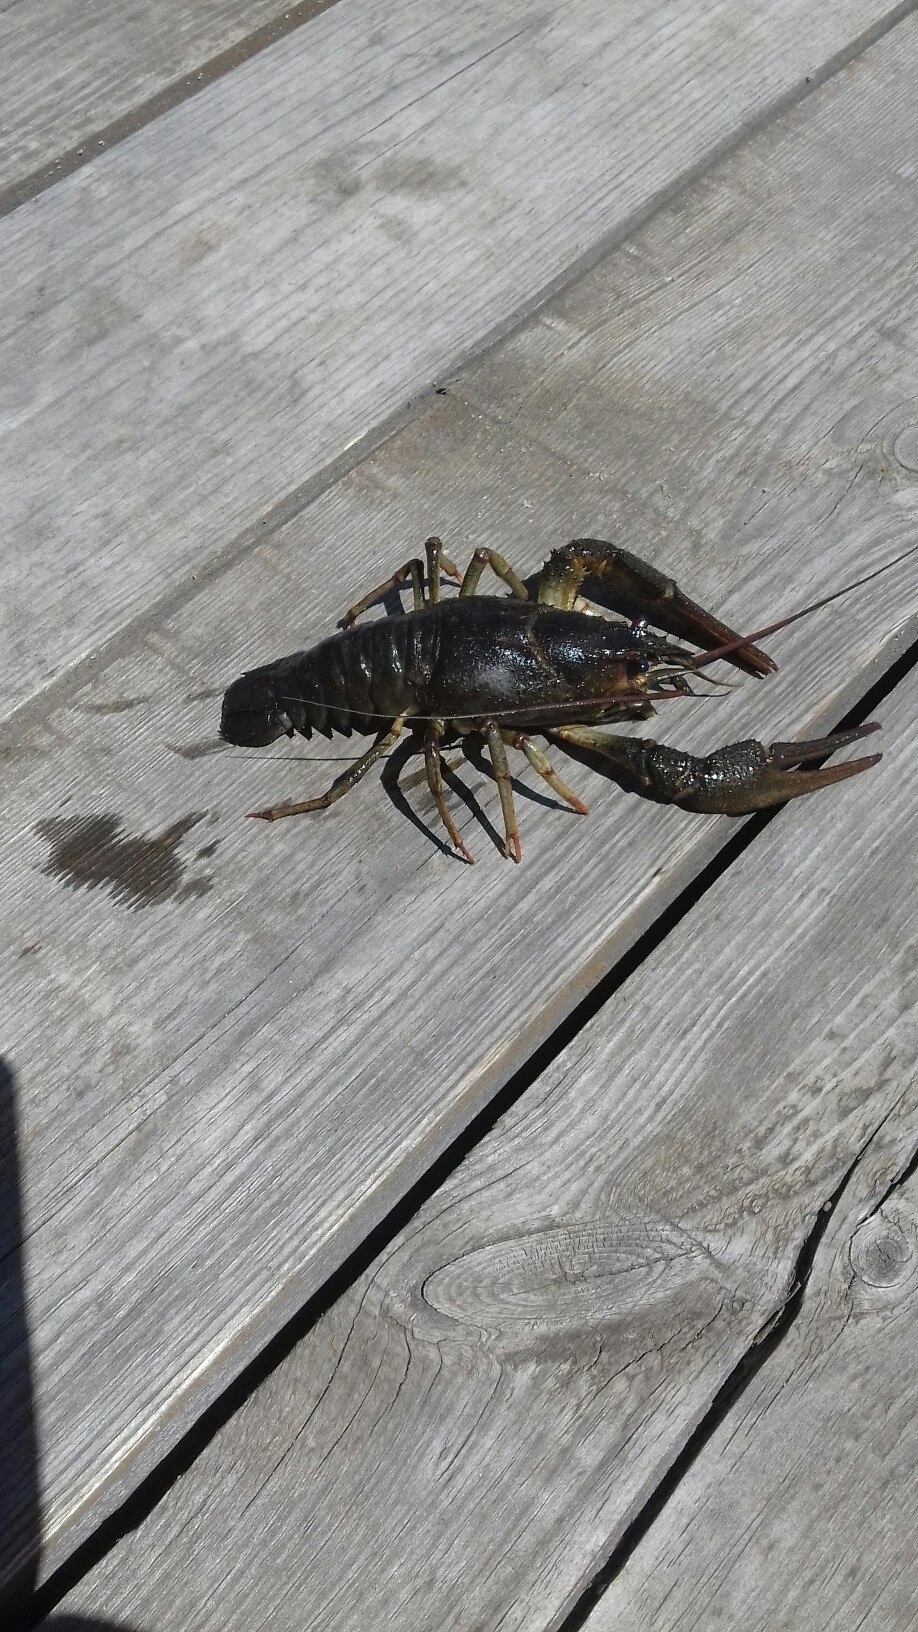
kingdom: Animalia
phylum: Arthropoda
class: Malacostraca
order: Decapoda
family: Astacidae
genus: Pontastacus
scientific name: Pontastacus leptodactylus
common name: Danube crayfish
